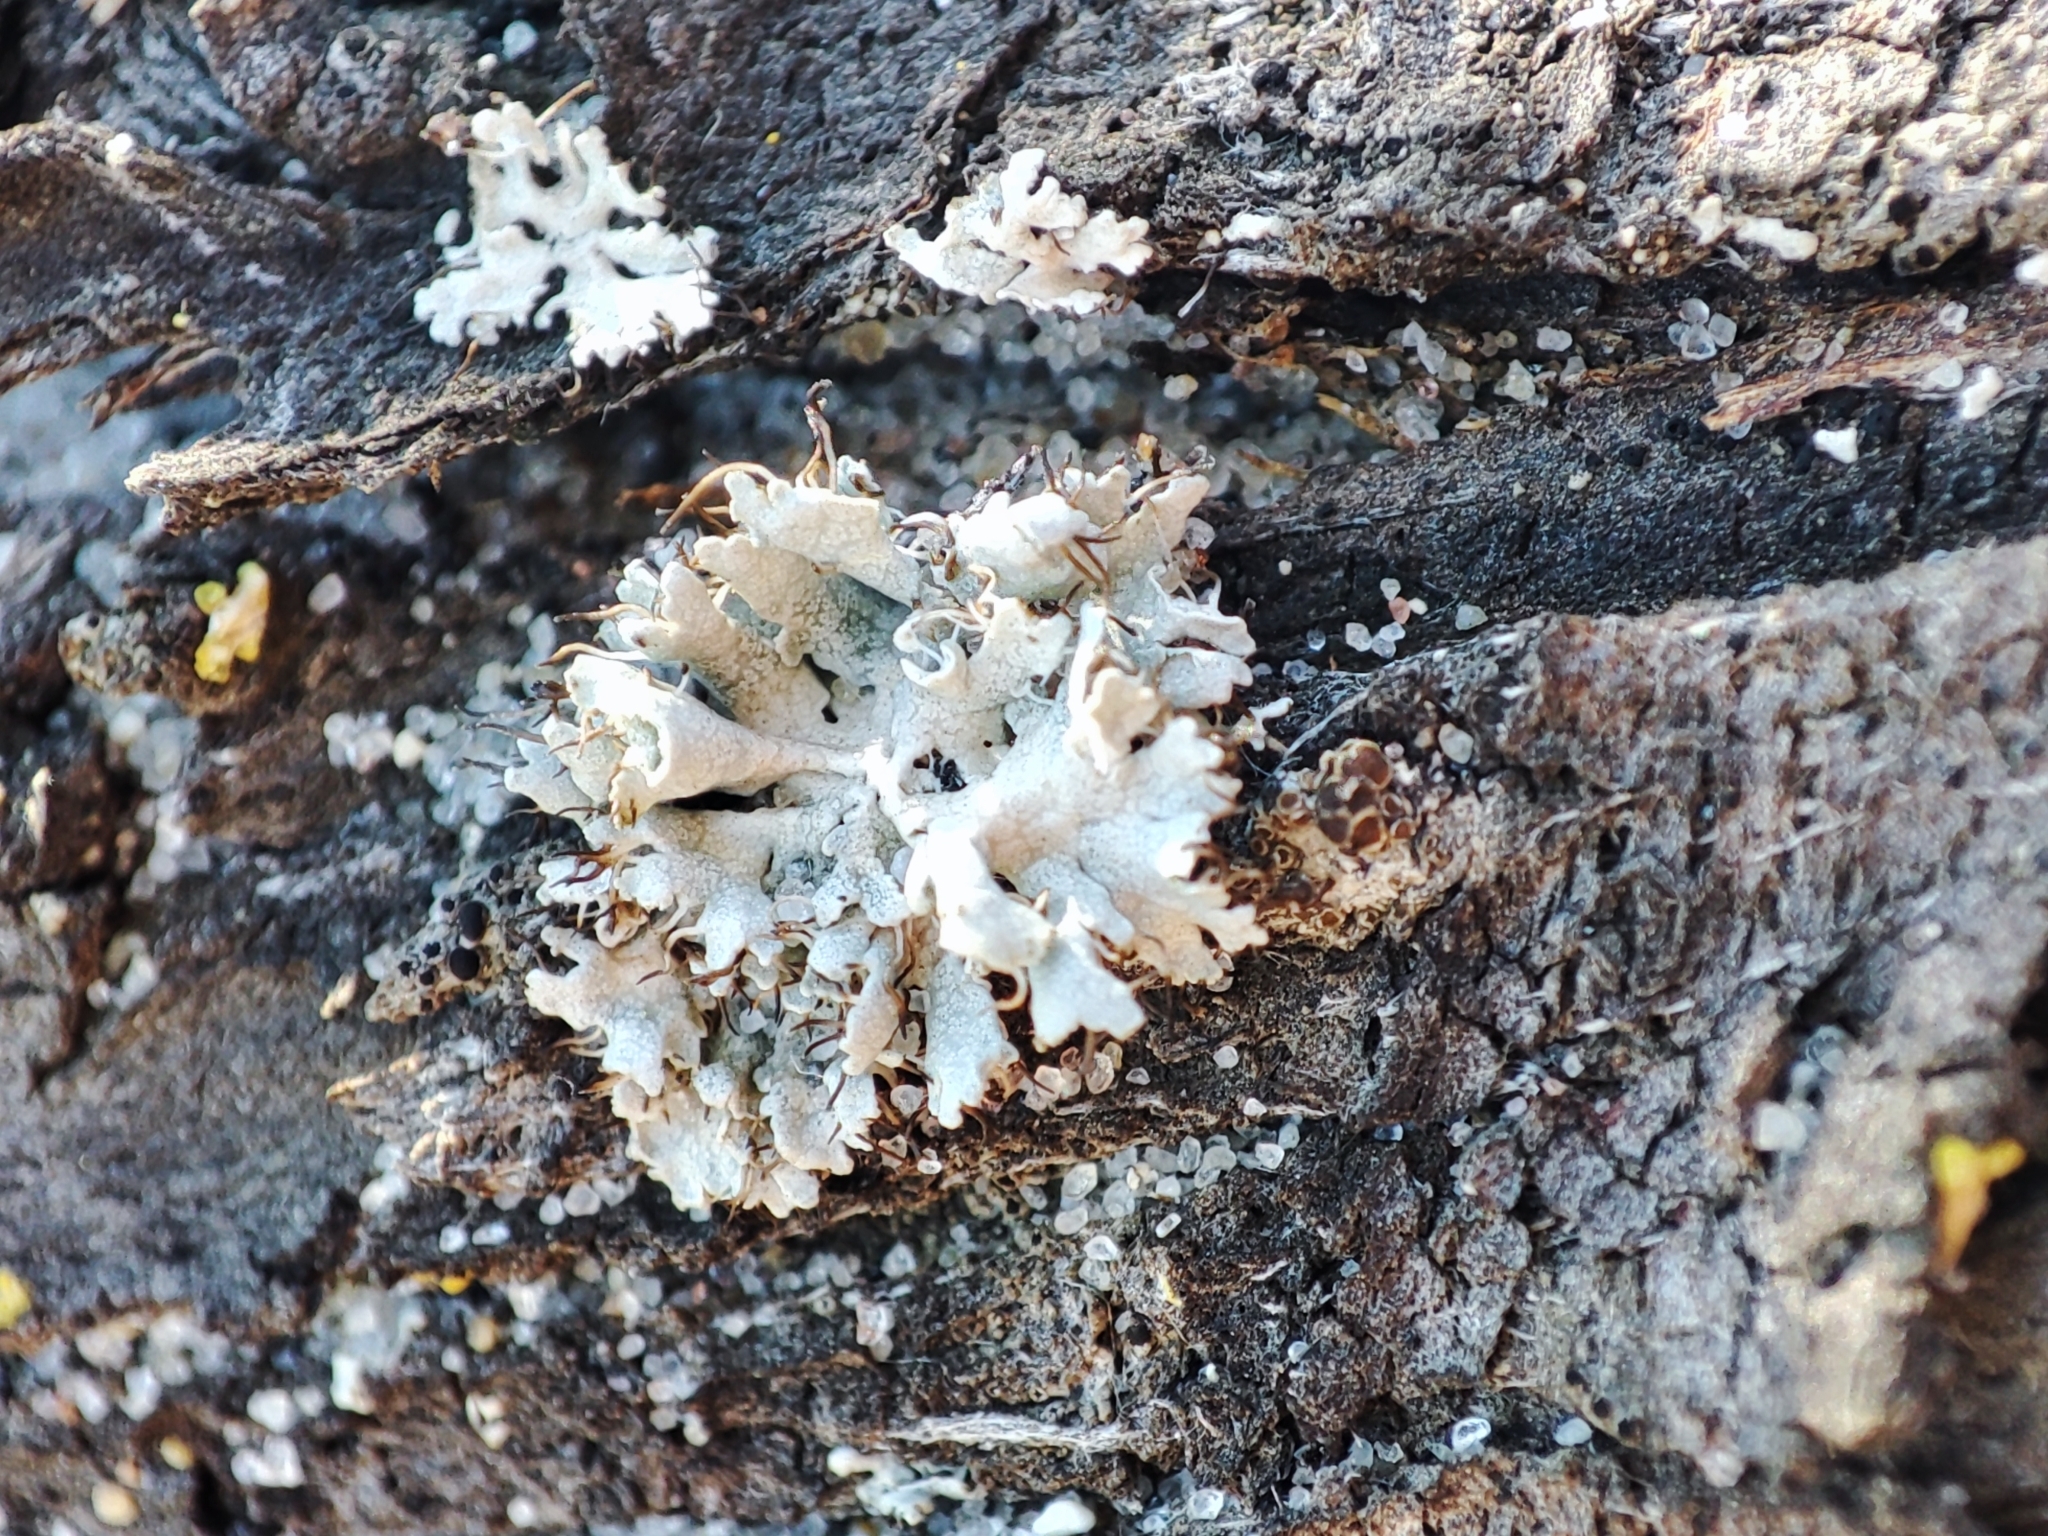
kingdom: Fungi
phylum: Ascomycota
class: Lecanoromycetes
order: Caliciales
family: Physciaceae
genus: Physcia
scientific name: Physcia adscendens
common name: Hooded rosette lichen
